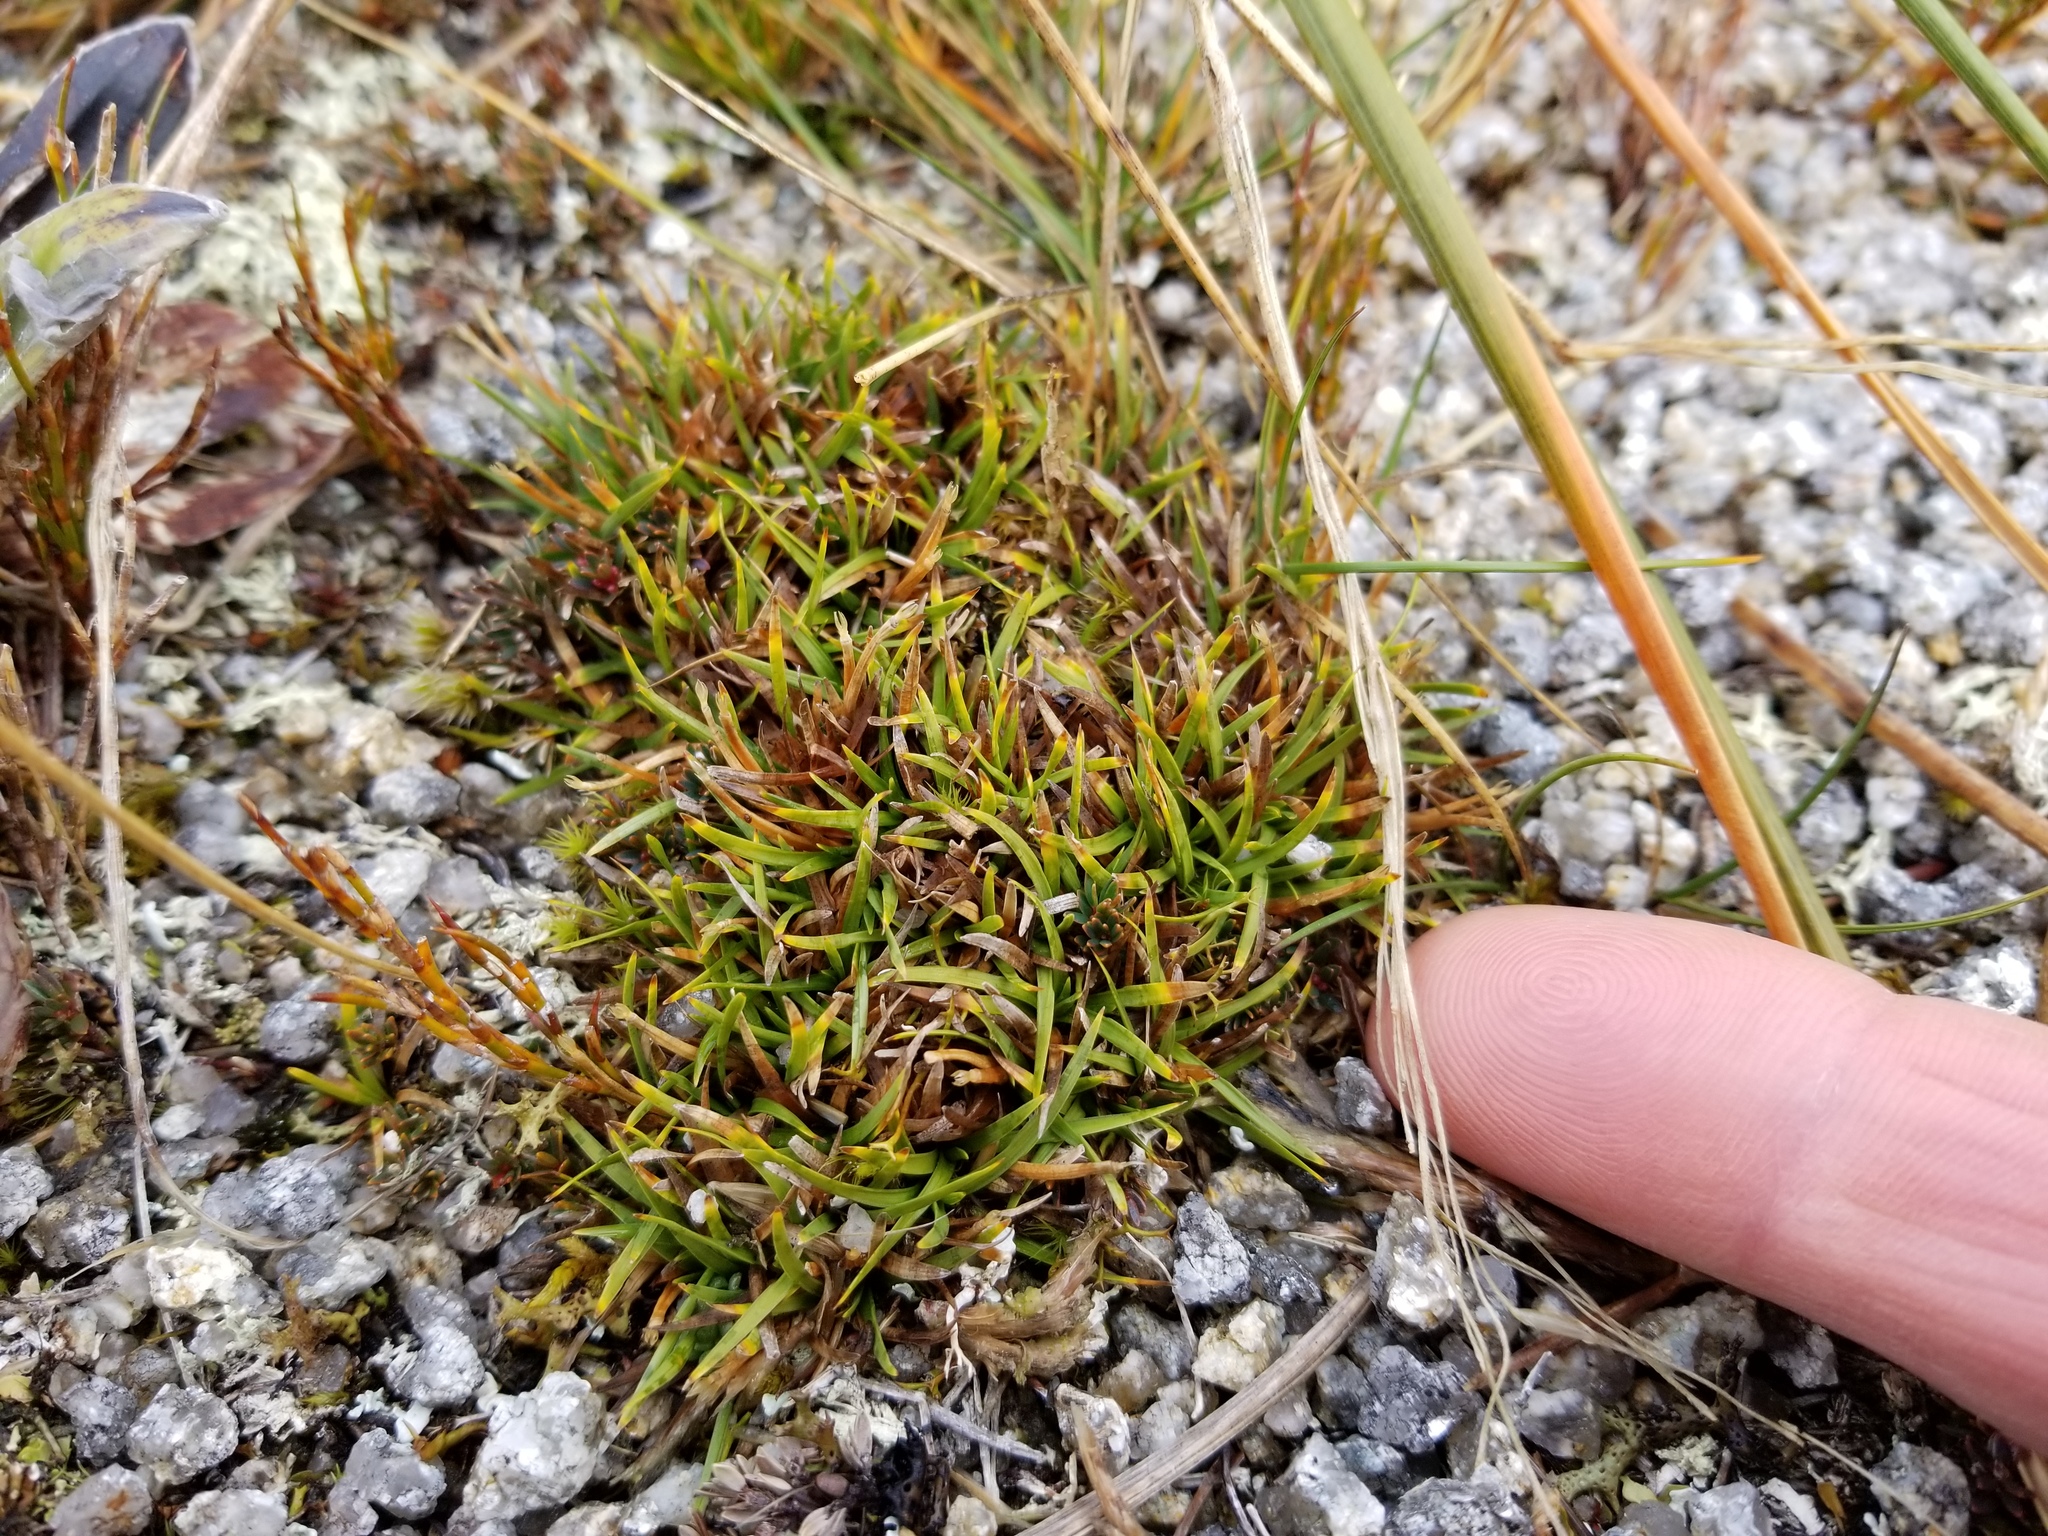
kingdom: Plantae
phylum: Tracheophyta
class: Liliopsida
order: Poales
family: Cyperaceae
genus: Oreobolus
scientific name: Oreobolus impar
